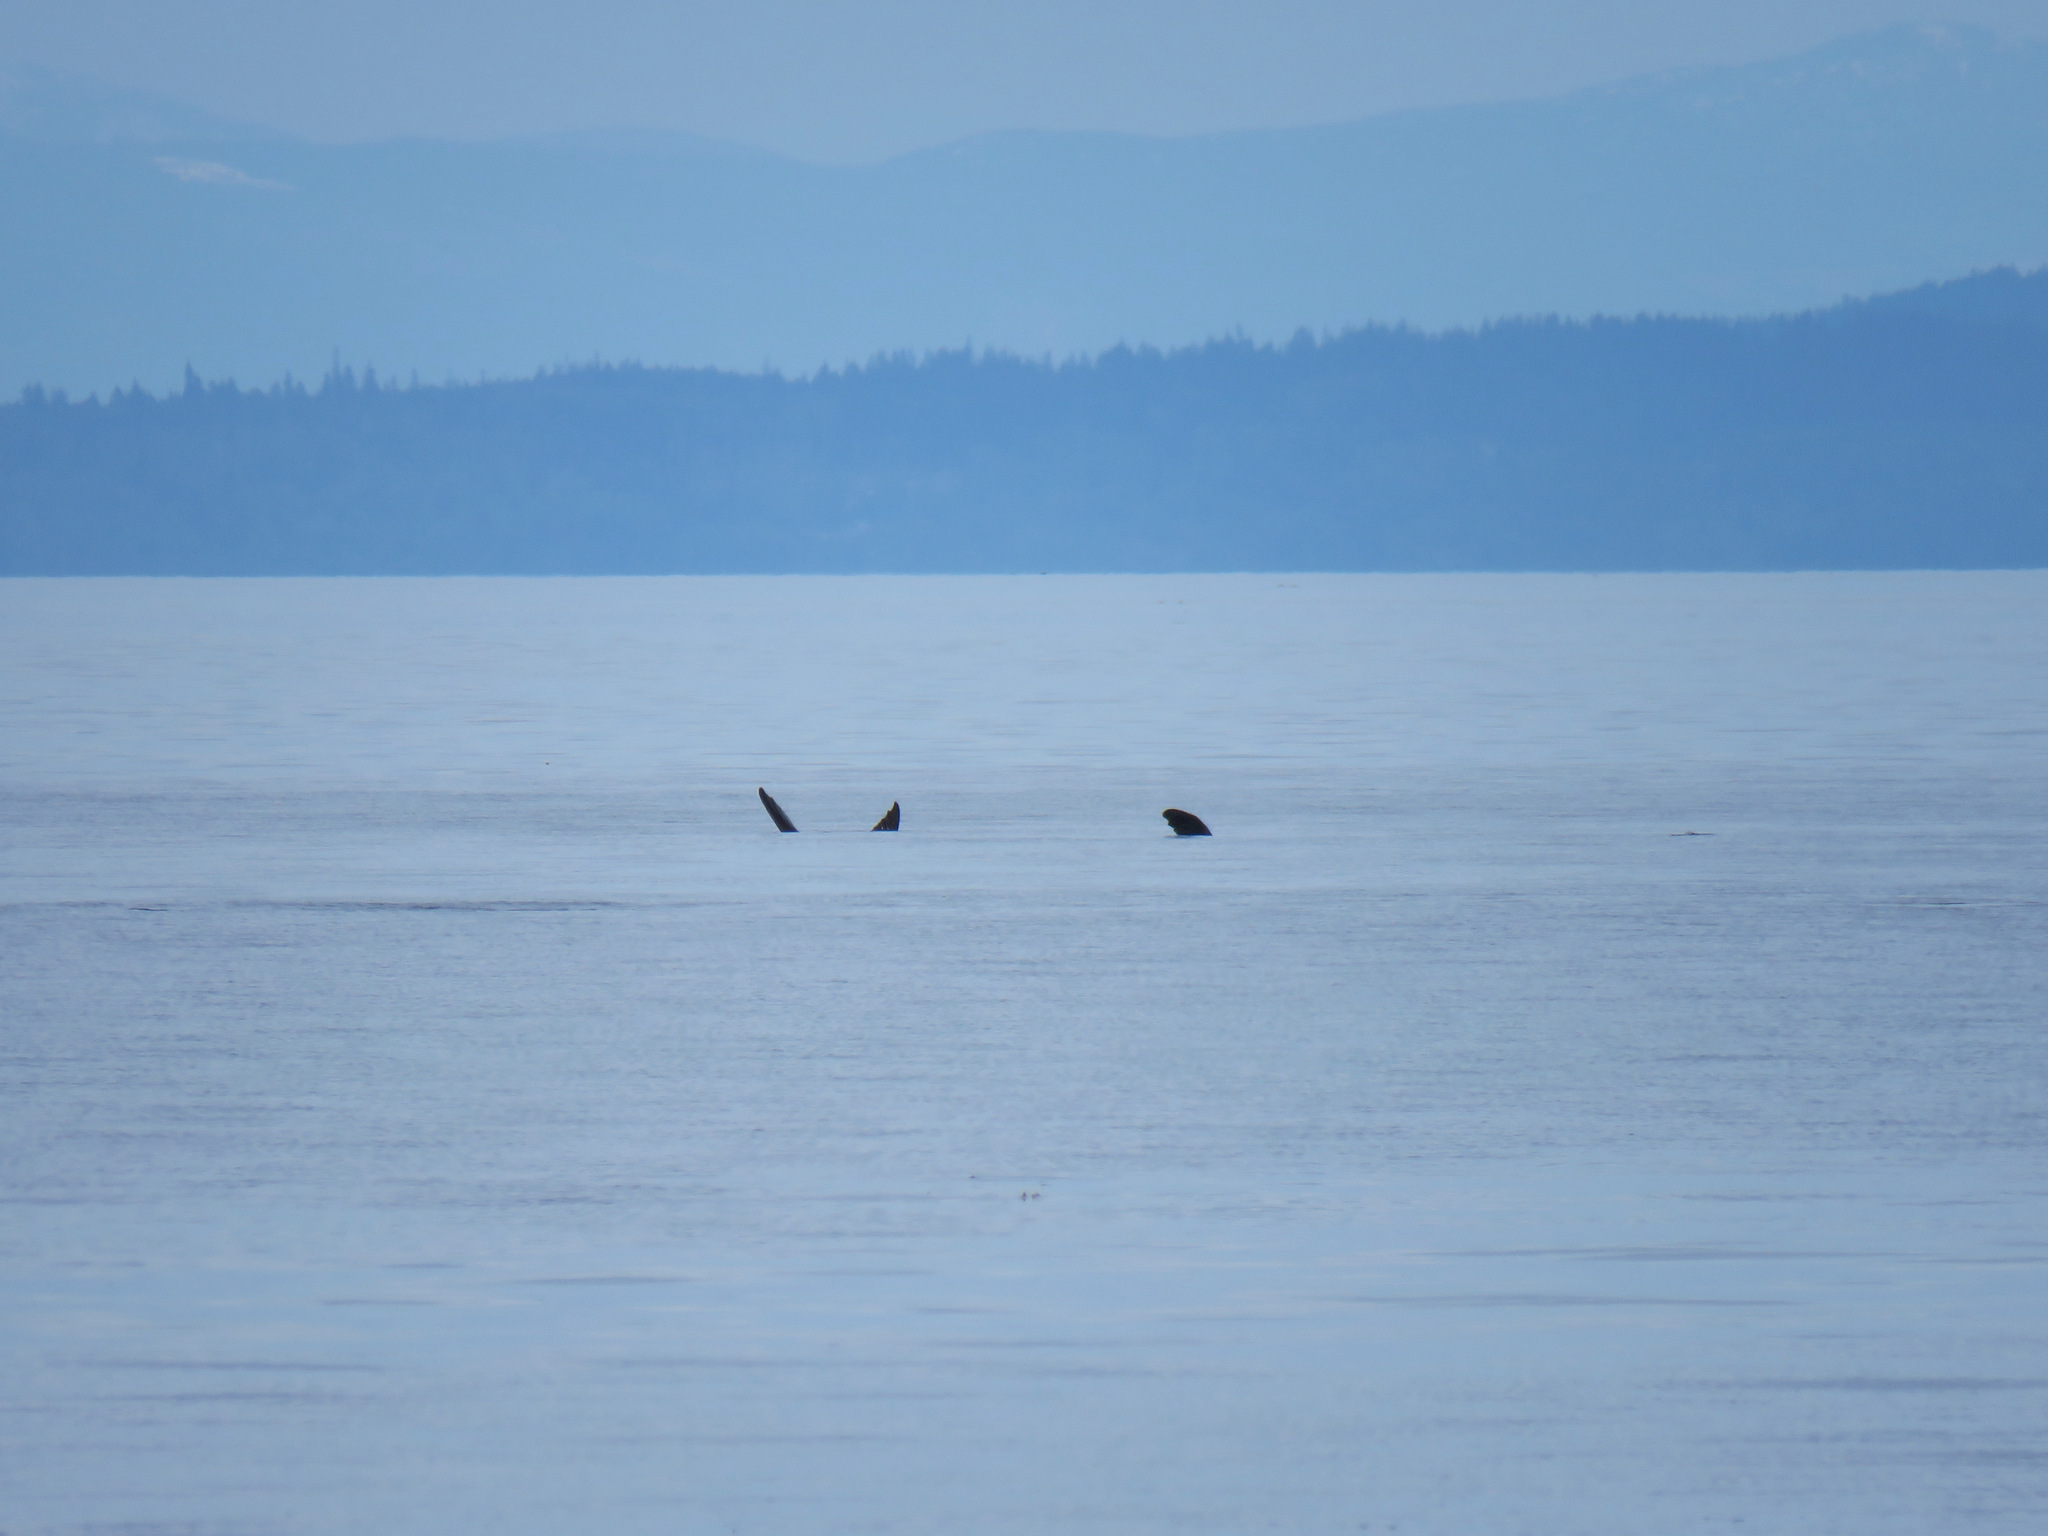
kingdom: Animalia
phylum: Chordata
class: Mammalia
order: Carnivora
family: Otariidae
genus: Zalophus
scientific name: Zalophus californianus
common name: California sea lion
